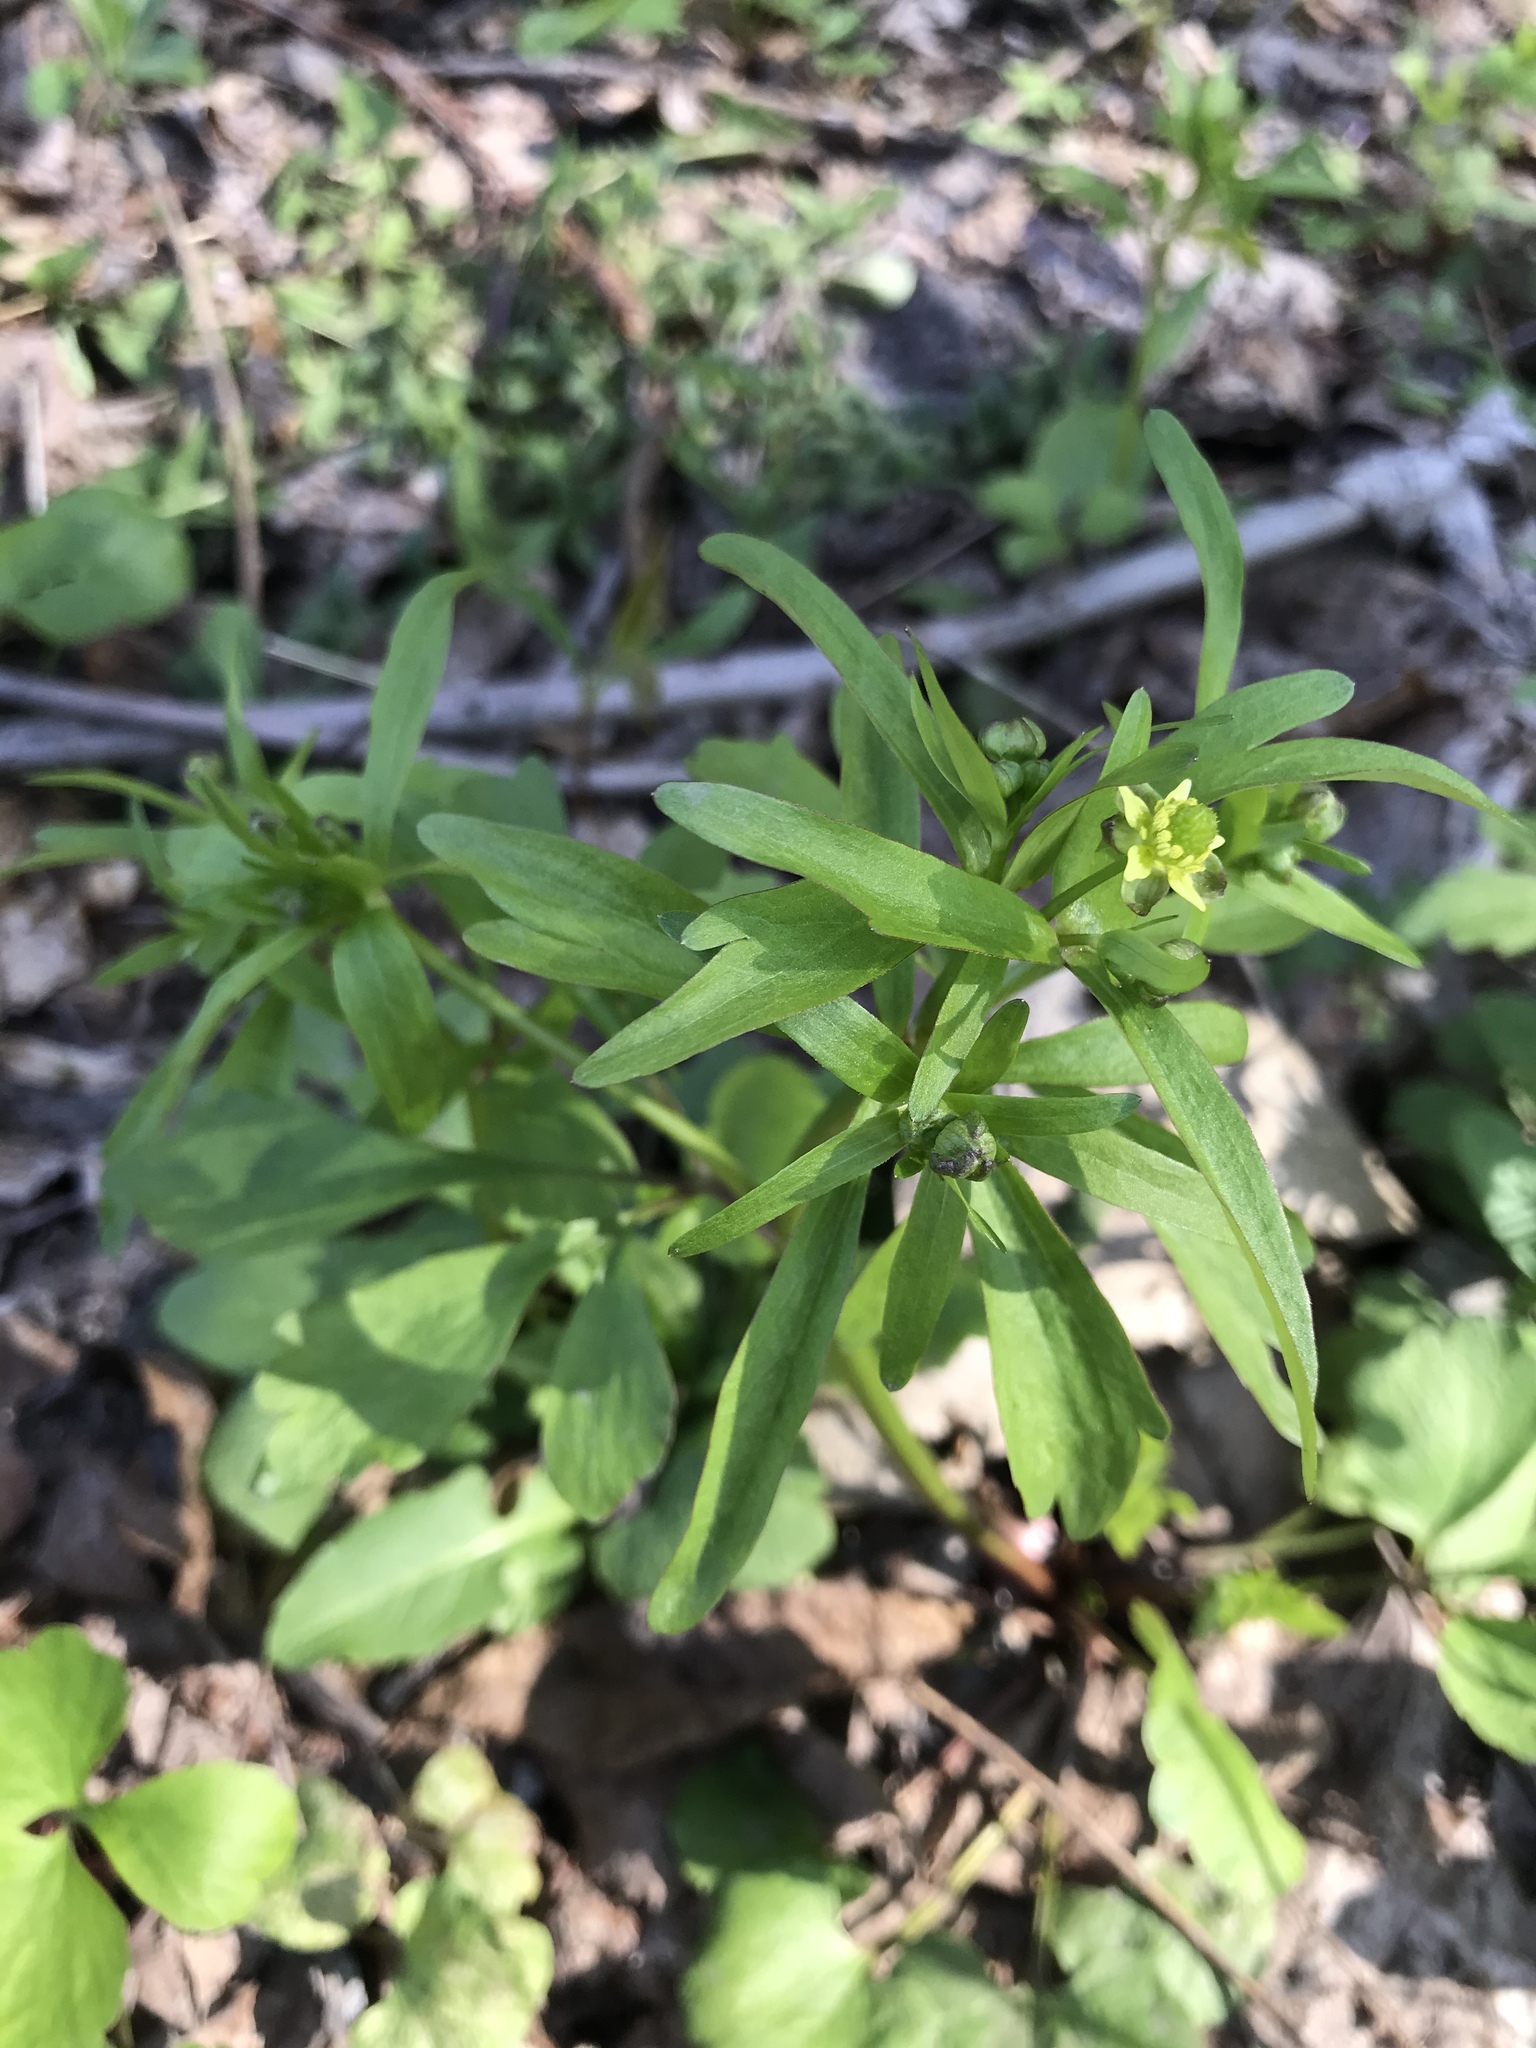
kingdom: Plantae
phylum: Tracheophyta
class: Magnoliopsida
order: Ranunculales
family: Ranunculaceae
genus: Ranunculus
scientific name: Ranunculus abortivus
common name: Early wood buttercup
